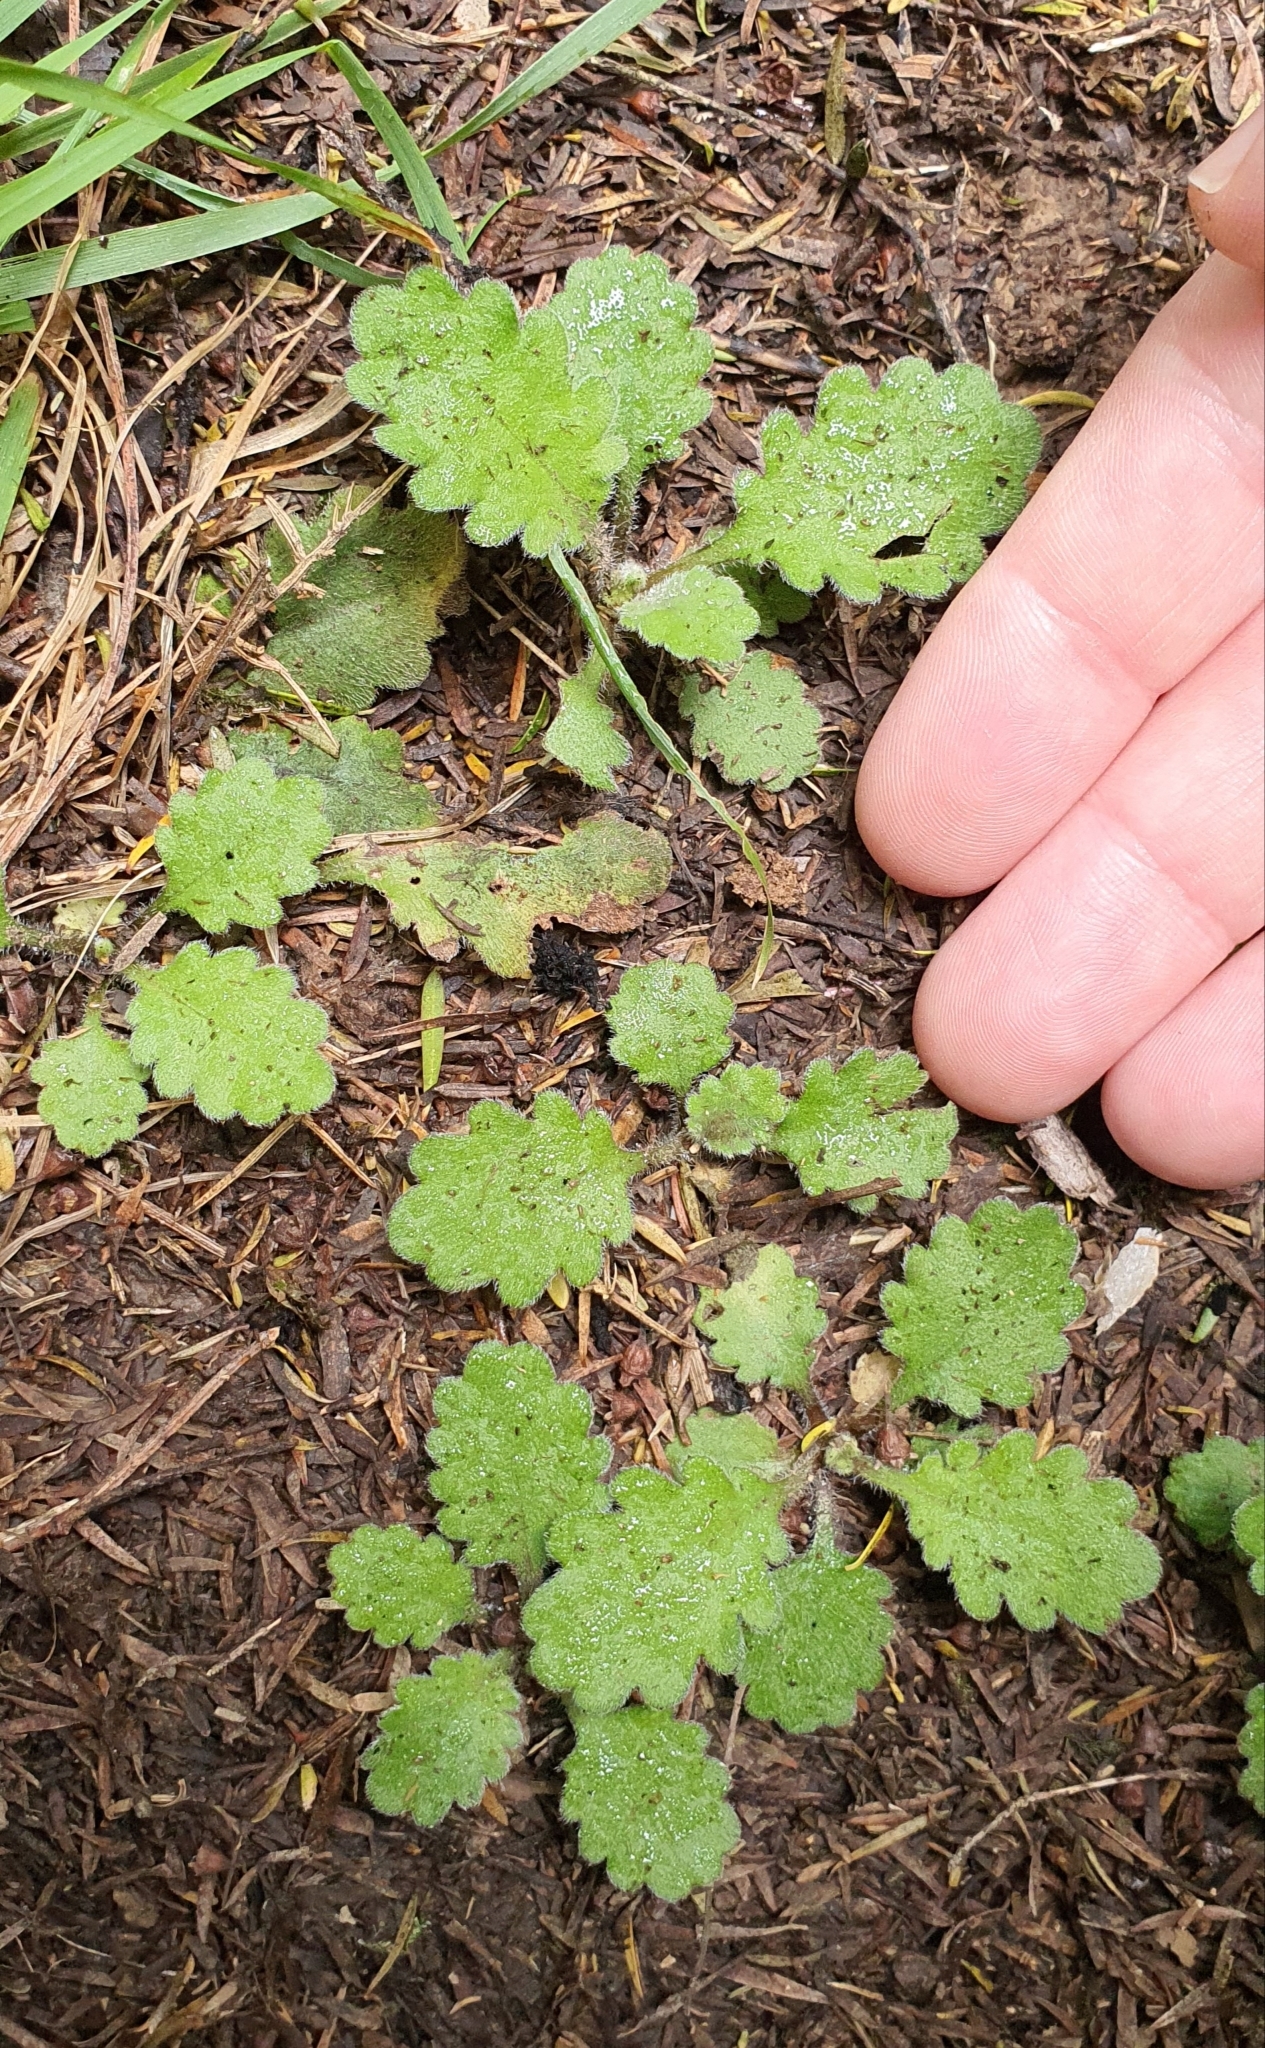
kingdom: Plantae
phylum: Tracheophyta
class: Magnoliopsida
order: Asterales
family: Asteraceae
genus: Lagenophora
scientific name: Lagenophora pinnatifida
